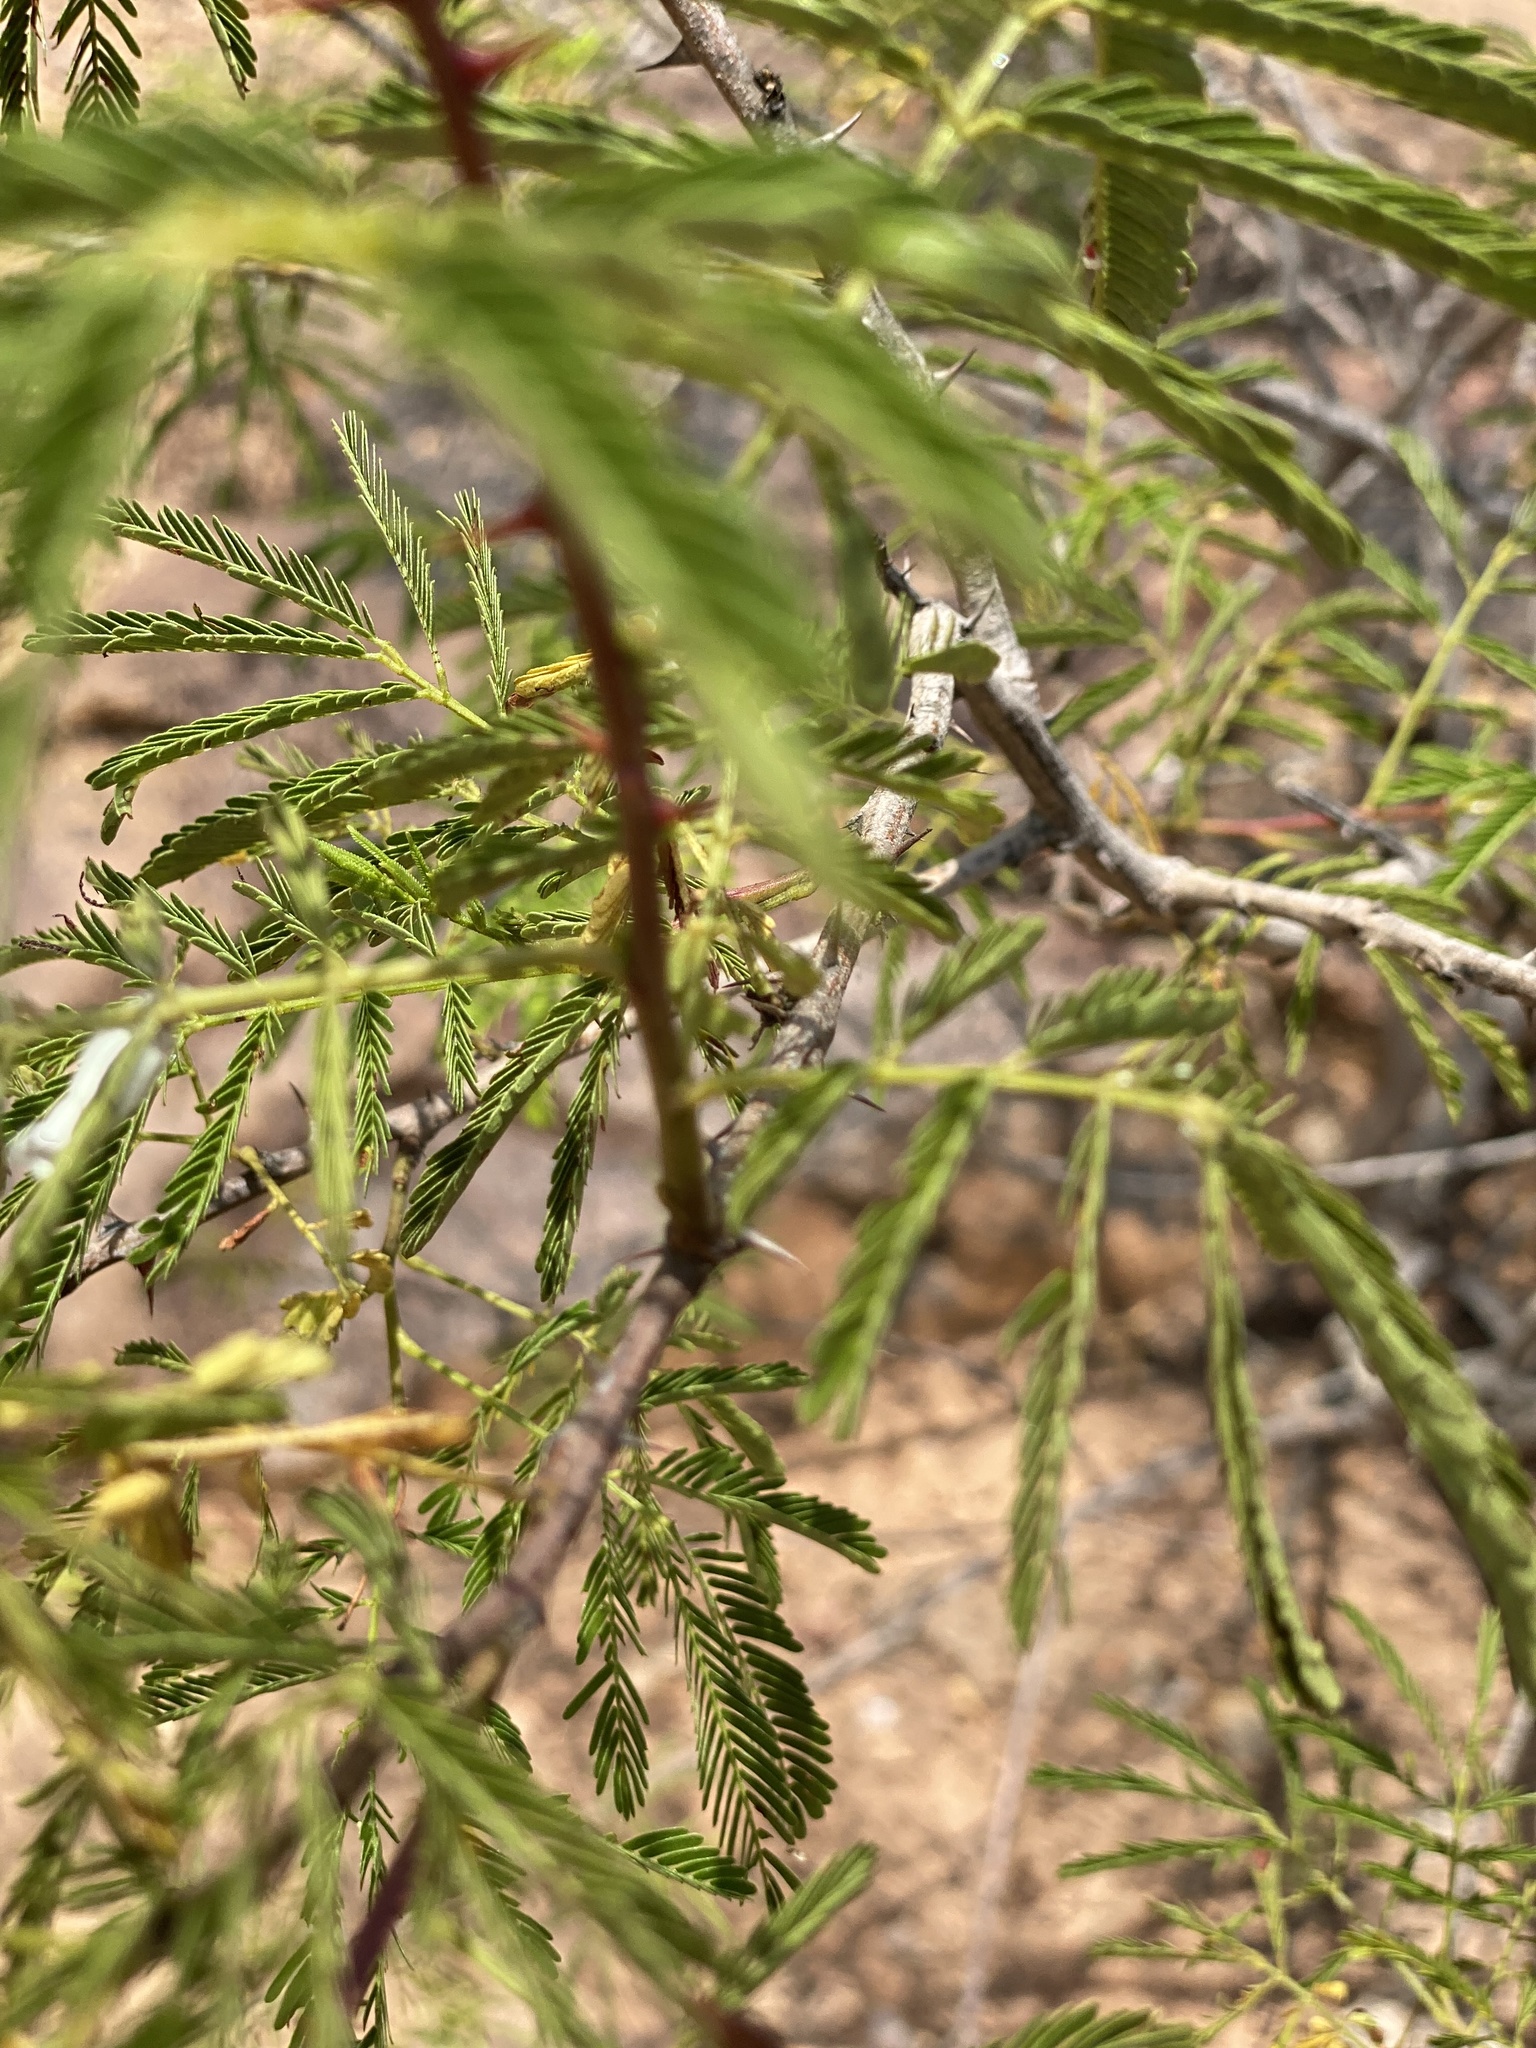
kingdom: Plantae
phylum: Tracheophyta
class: Magnoliopsida
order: Fabales
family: Fabaceae
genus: Mimosa
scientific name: Mimosa tenuiflora
